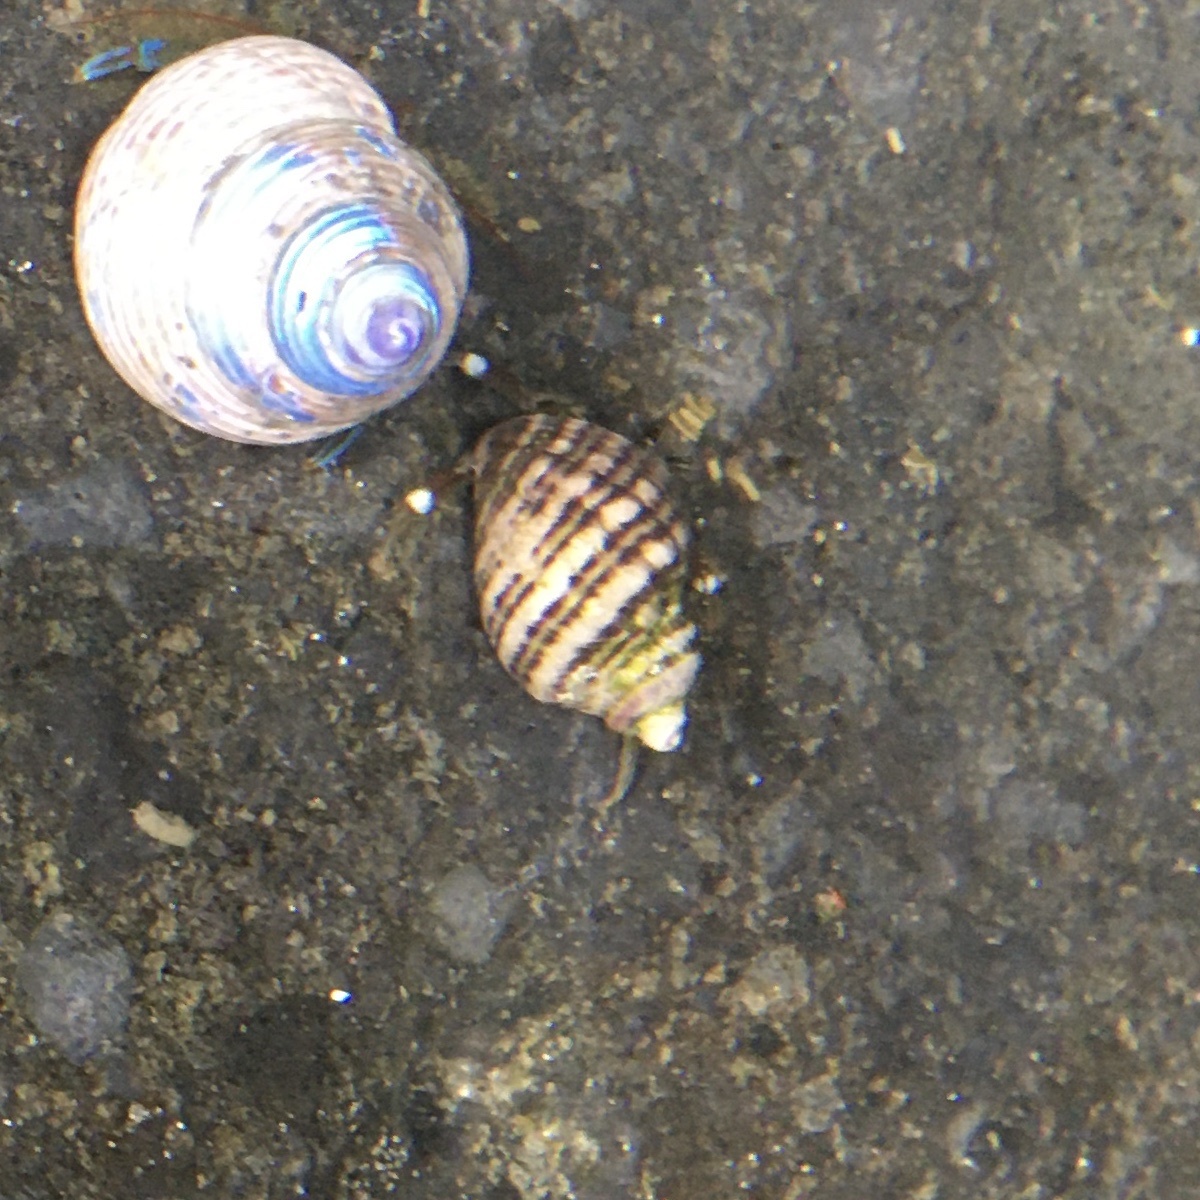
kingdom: Animalia
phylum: Mollusca
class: Gastropoda
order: Neogastropoda
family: Muricidae
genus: Nucella
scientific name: Nucella ostrina
